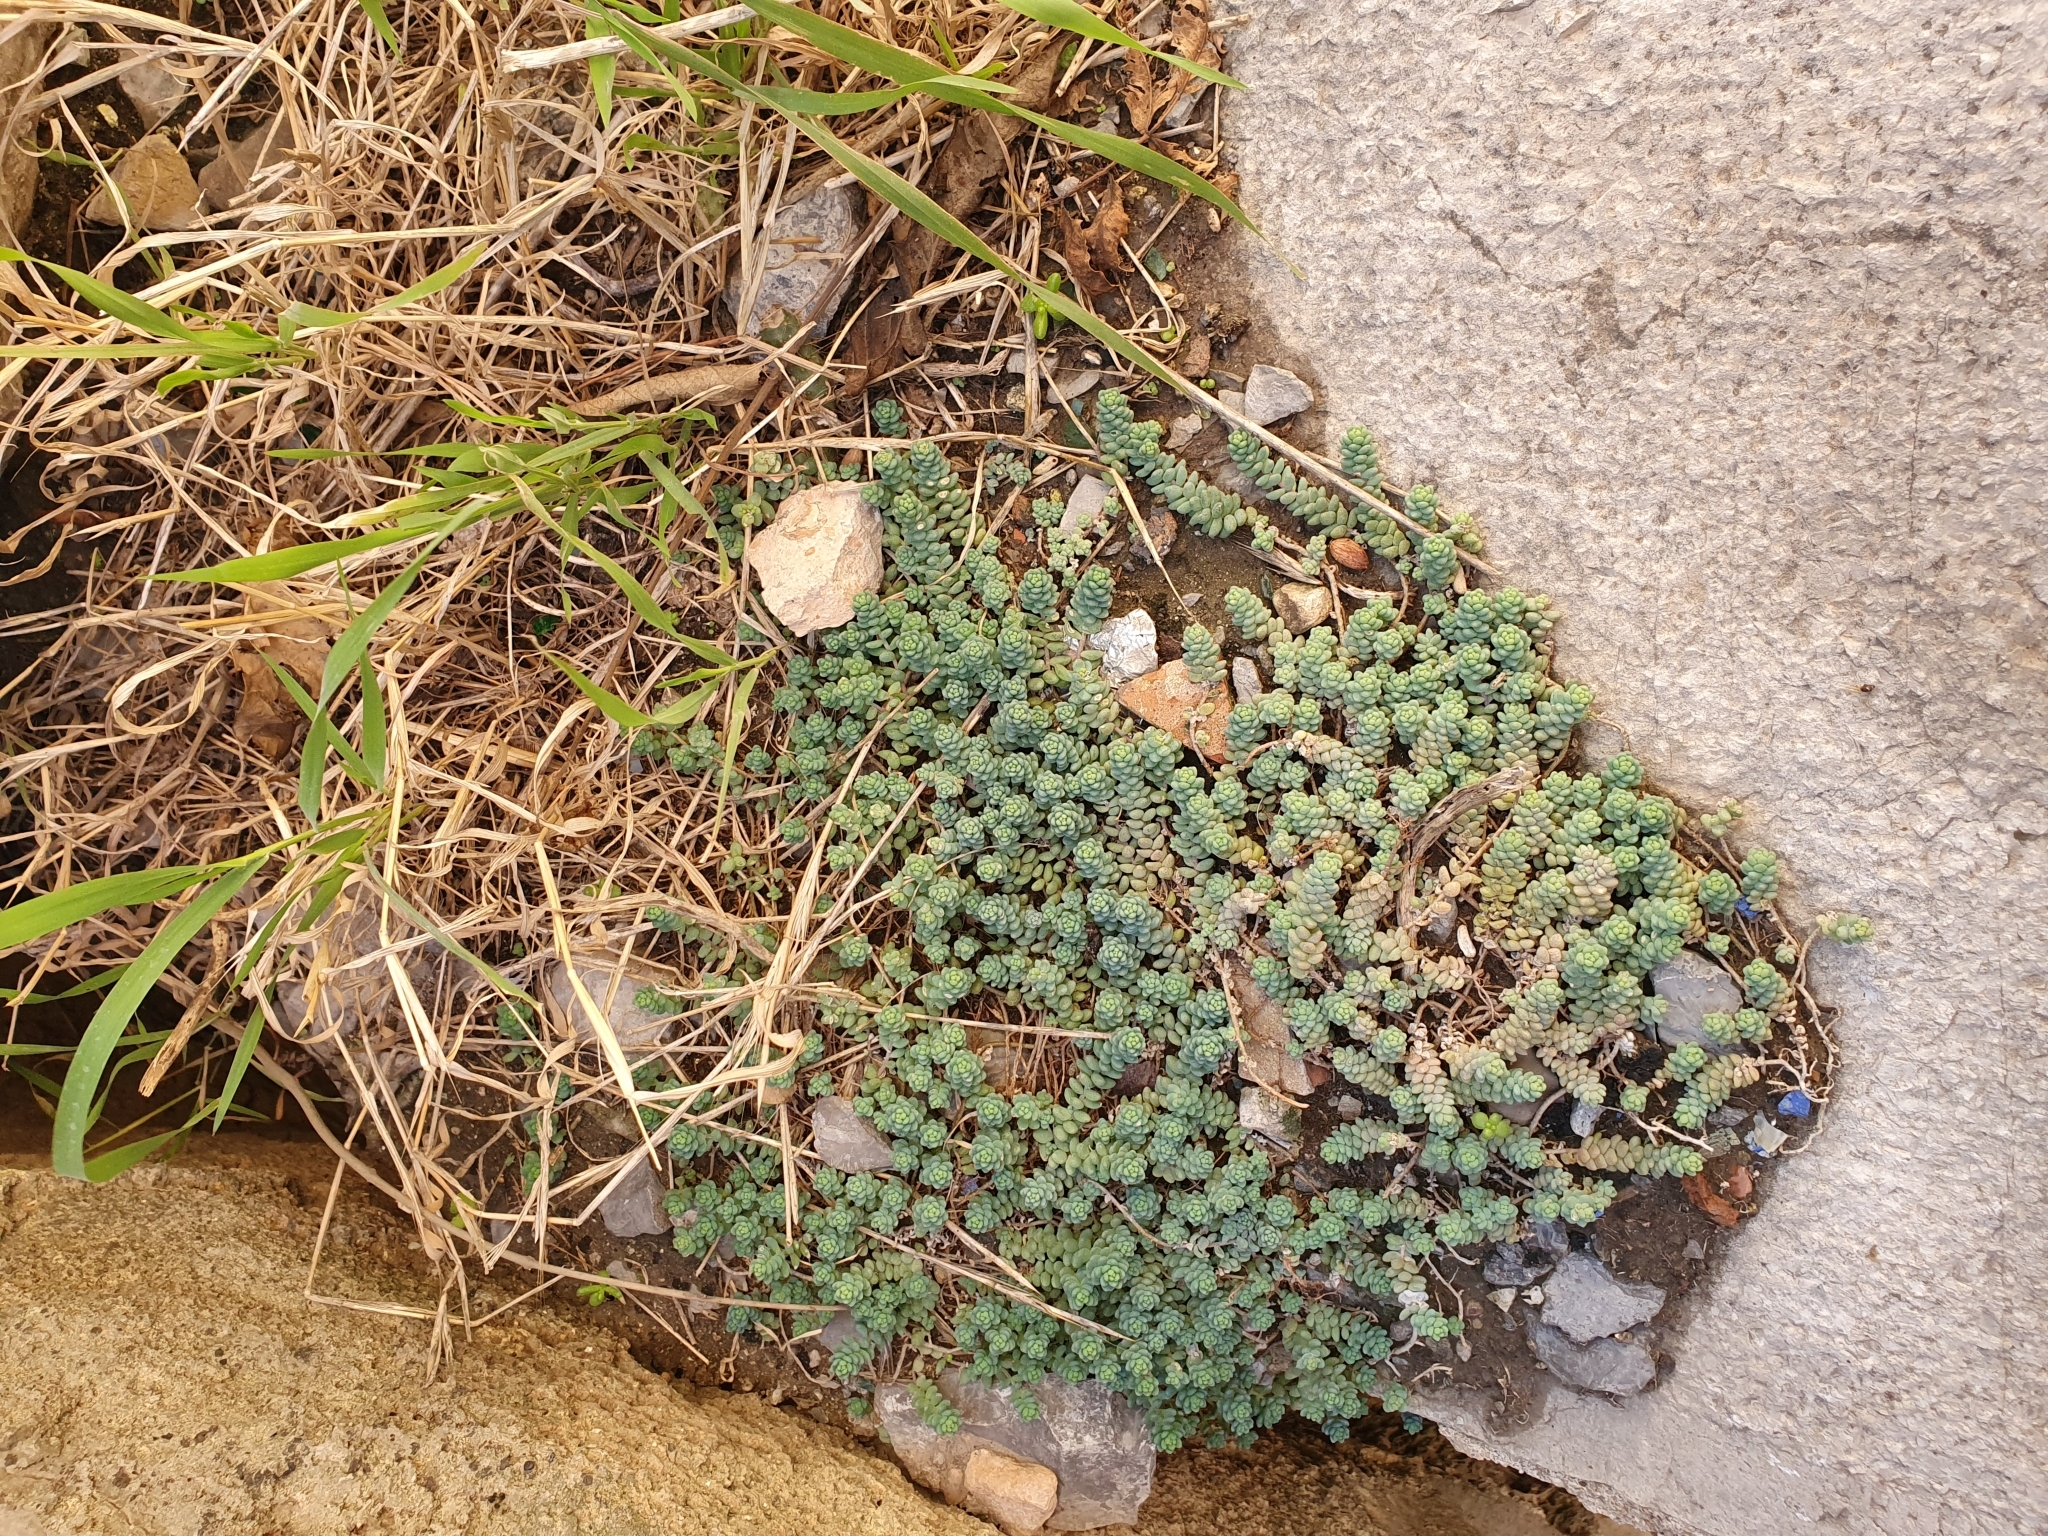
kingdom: Plantae
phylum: Tracheophyta
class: Magnoliopsida
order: Saxifragales
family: Crassulaceae
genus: Sedum
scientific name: Sedum dasyphyllum
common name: Thick-leaf stonecrop
